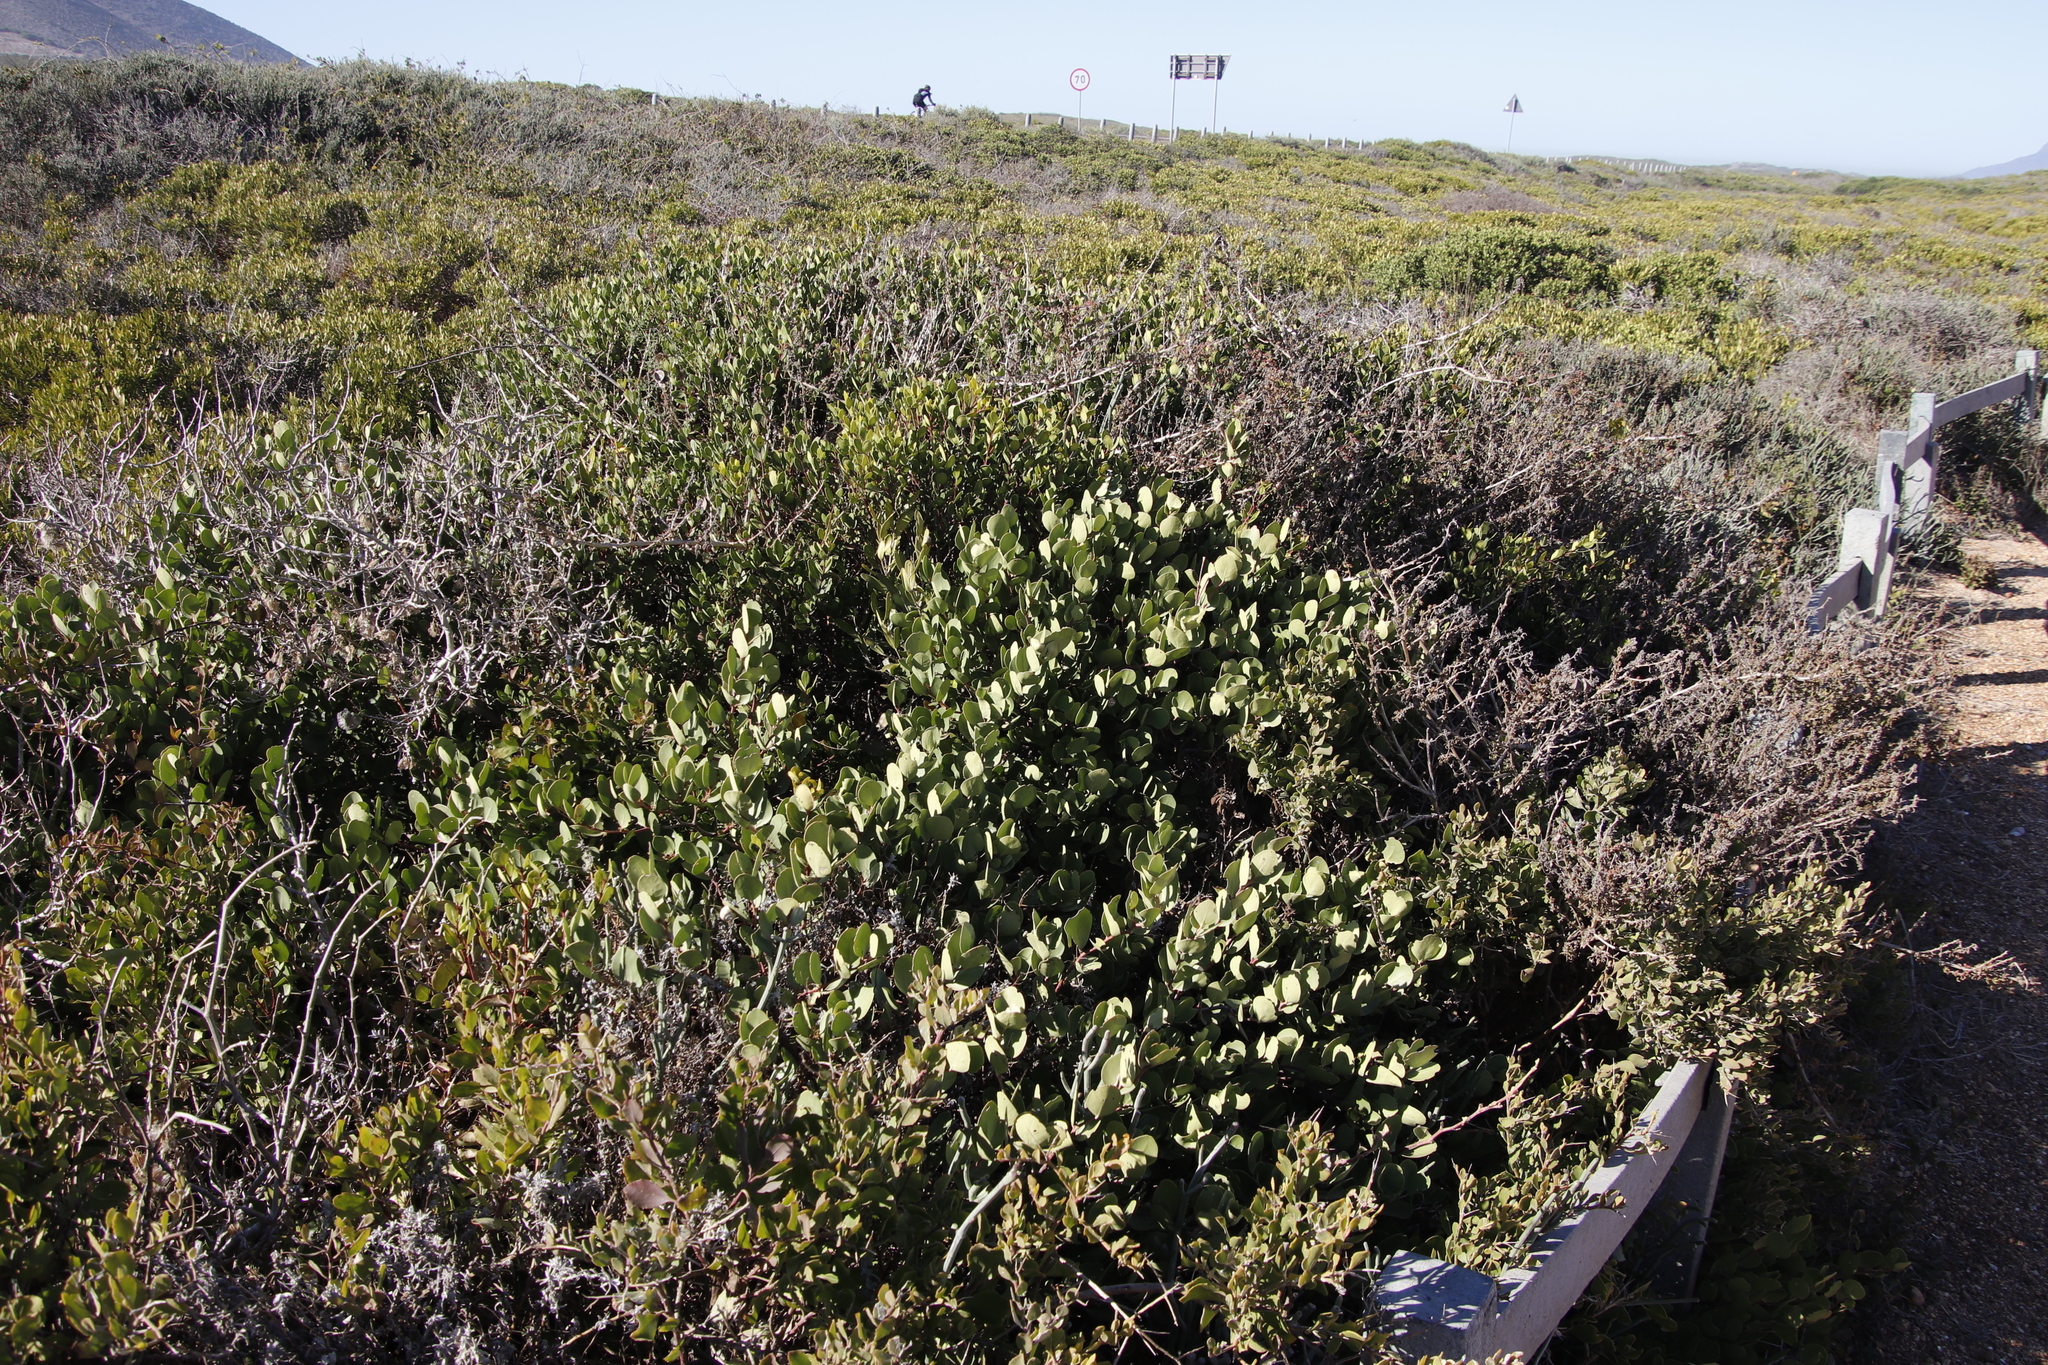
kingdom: Plantae
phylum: Tracheophyta
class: Magnoliopsida
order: Celastrales
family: Celastraceae
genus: Pterocelastrus
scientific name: Pterocelastrus tricuspidatus
